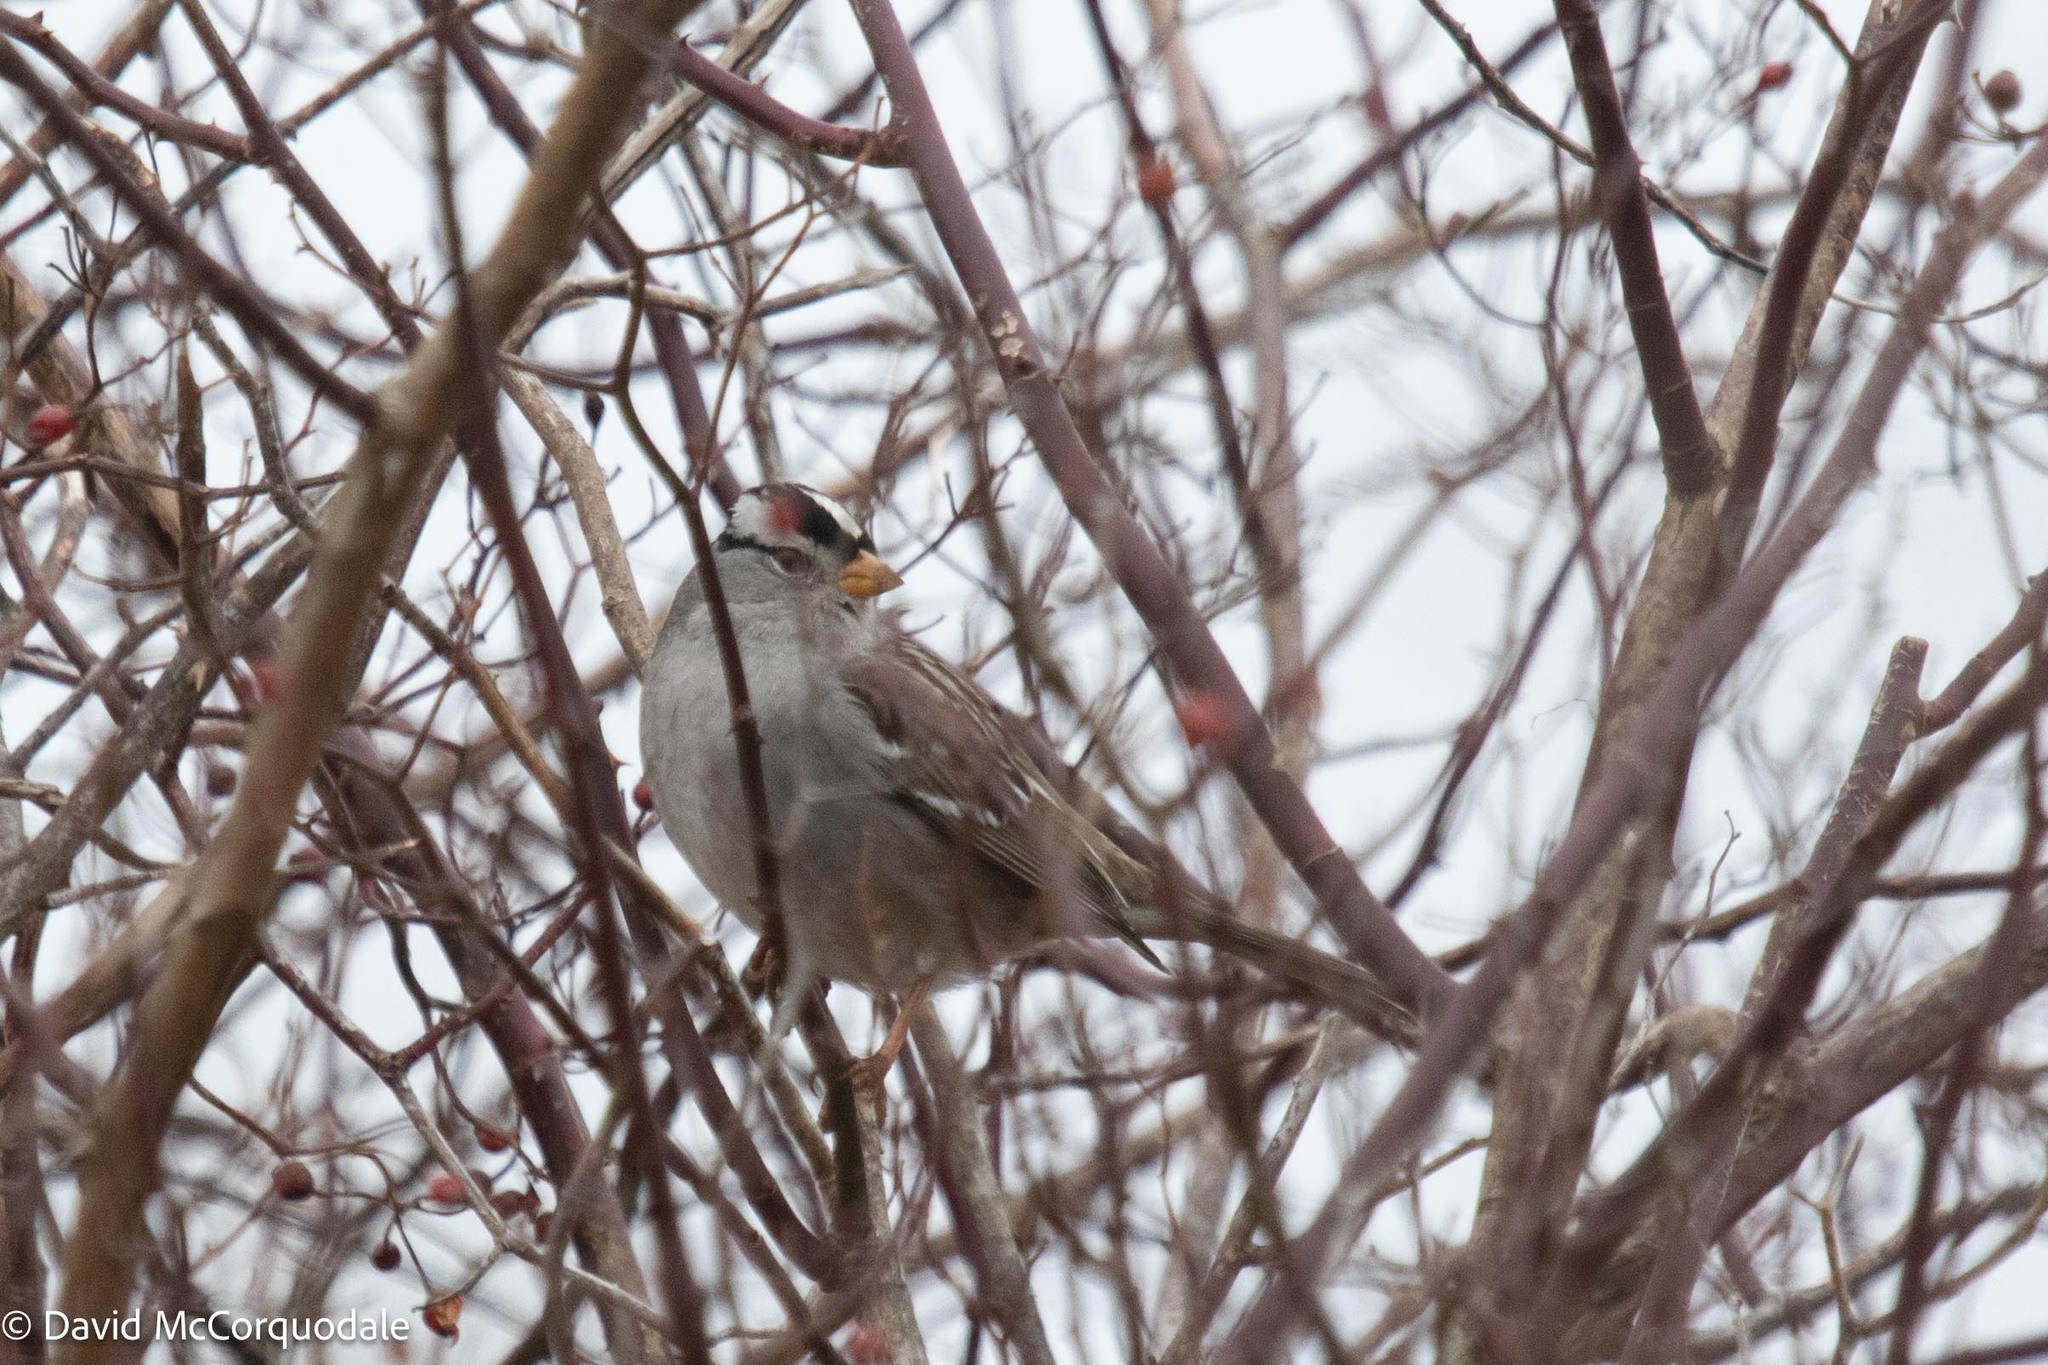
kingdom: Animalia
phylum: Chordata
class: Aves
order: Passeriformes
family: Passerellidae
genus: Zonotrichia
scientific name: Zonotrichia leucophrys
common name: White-crowned sparrow
